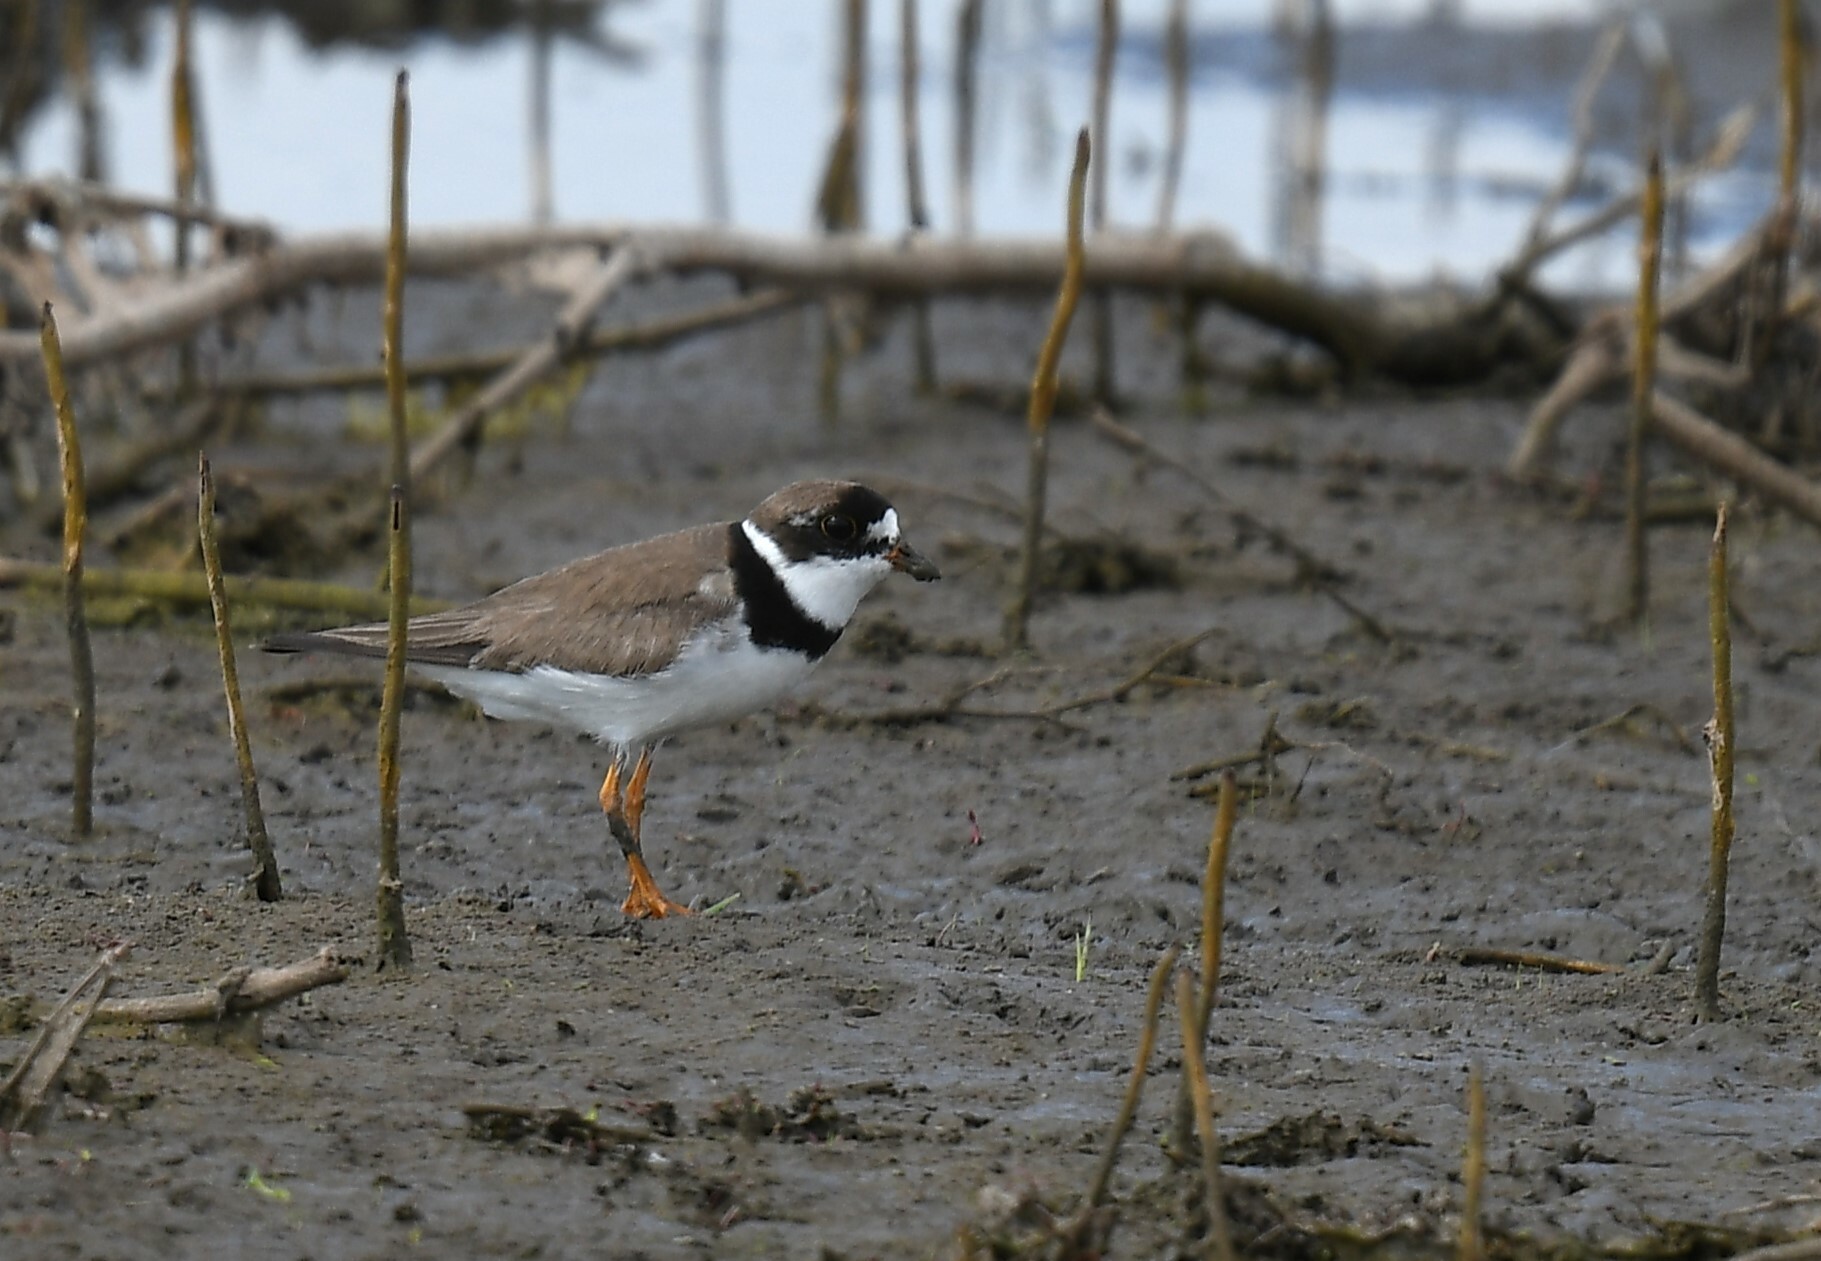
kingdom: Animalia
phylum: Chordata
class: Aves
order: Charadriiformes
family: Charadriidae
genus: Charadrius
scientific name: Charadrius semipalmatus
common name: Semipalmated plover
